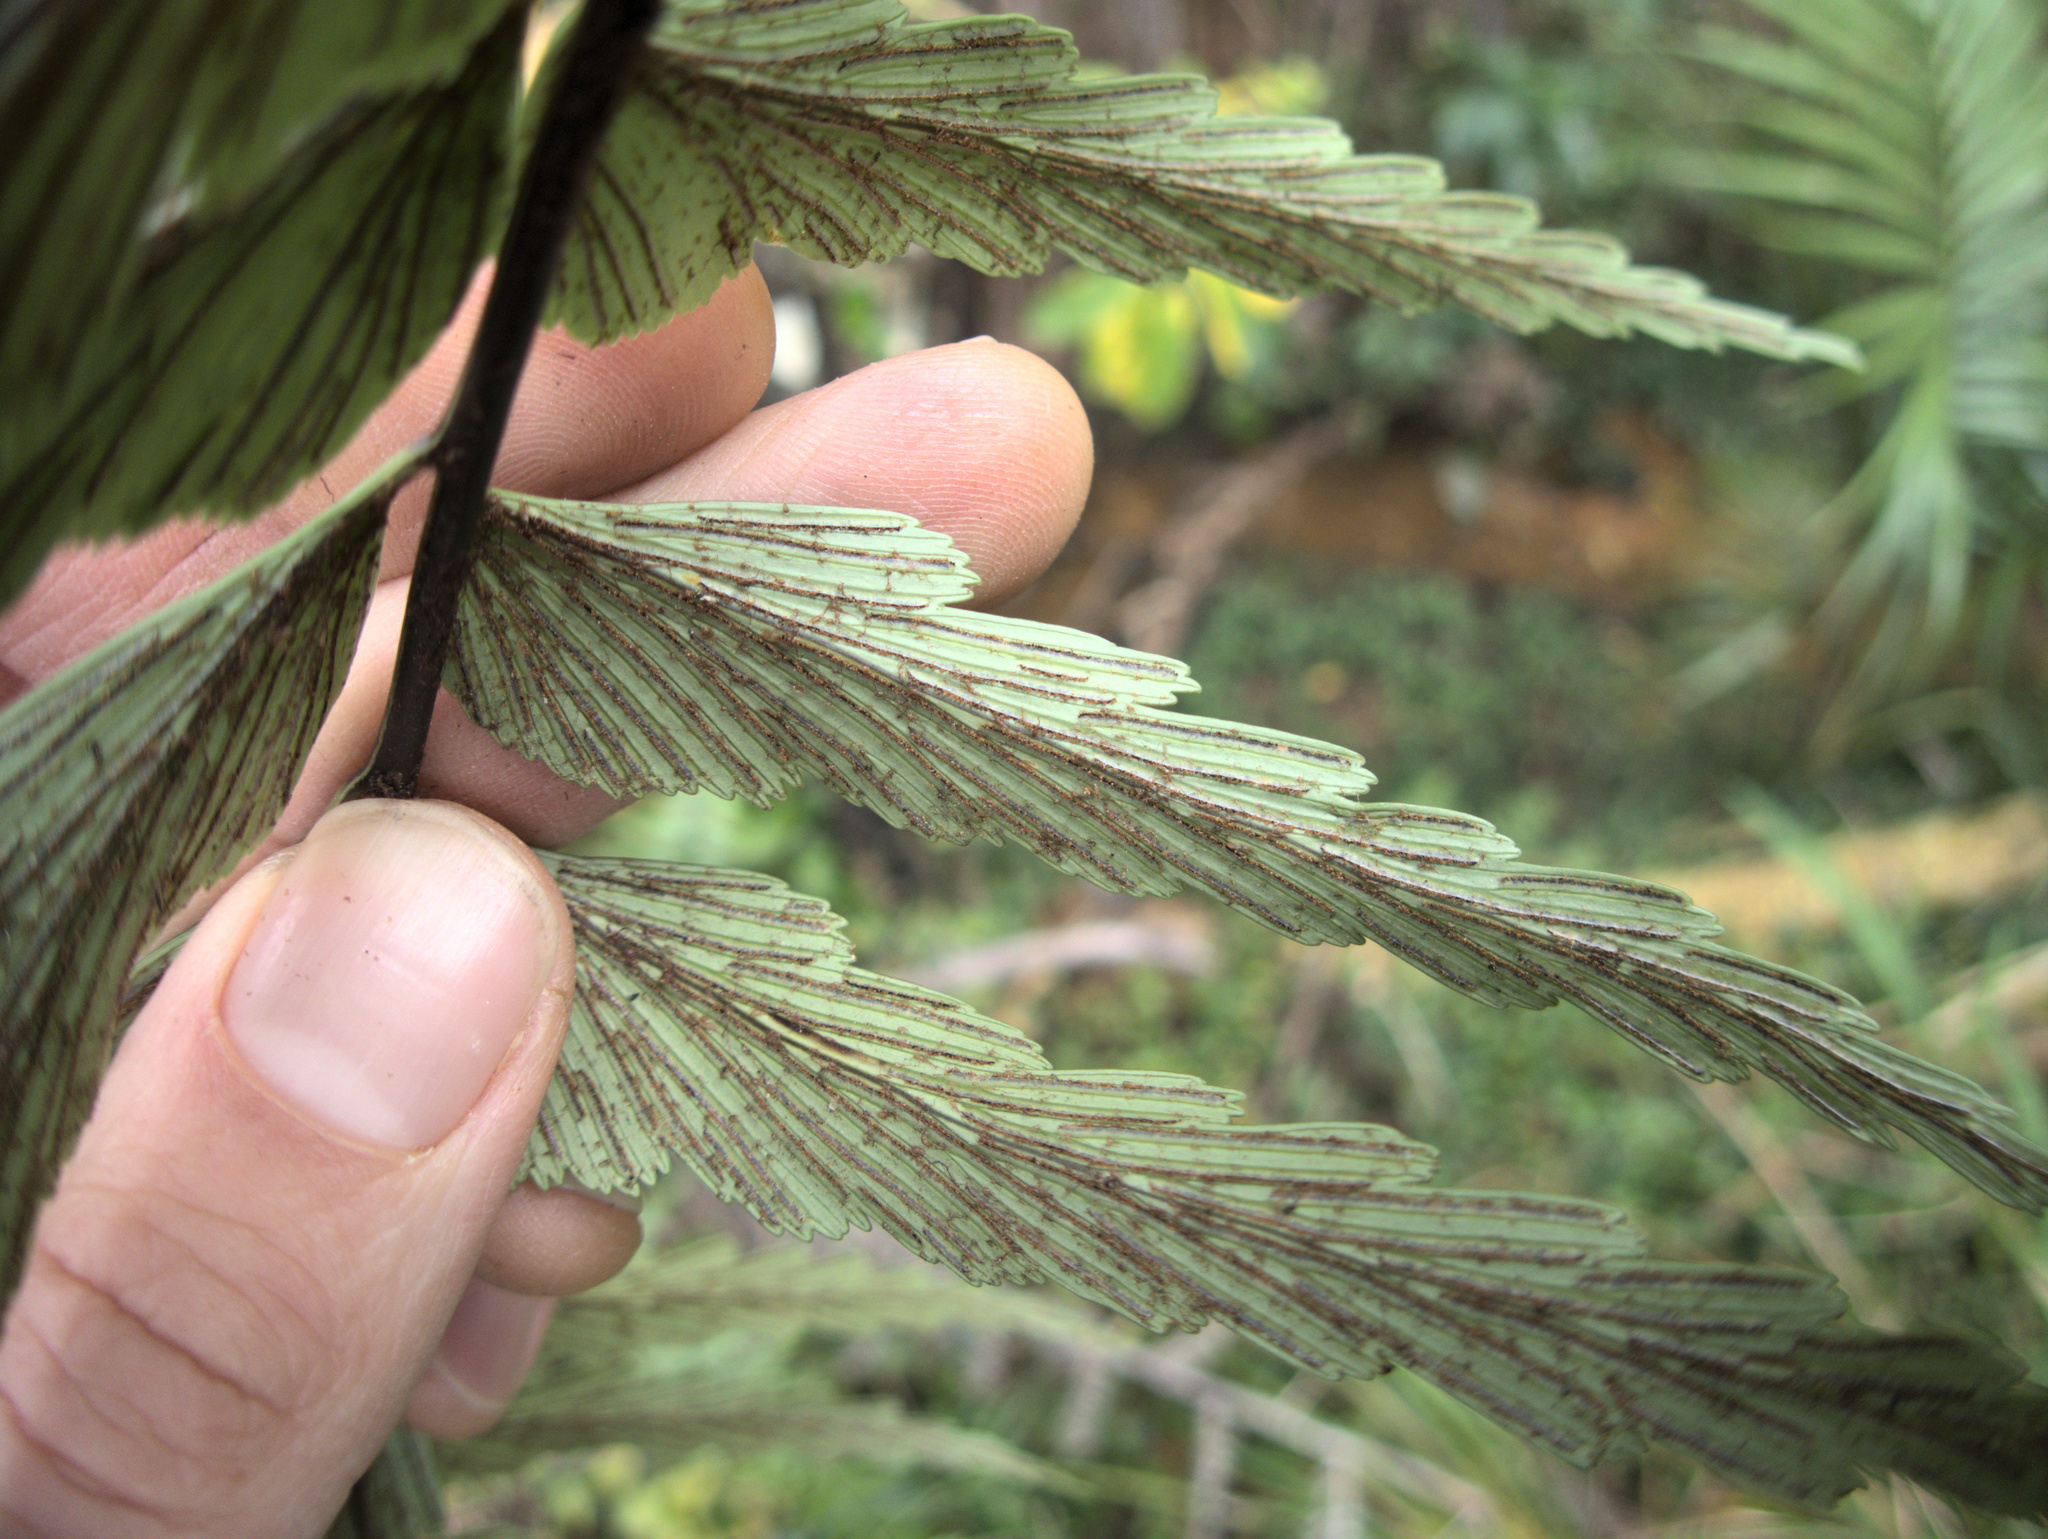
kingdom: Plantae
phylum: Tracheophyta
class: Polypodiopsida
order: Polypodiales
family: Aspleniaceae
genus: Asplenium
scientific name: Asplenium polyodon
